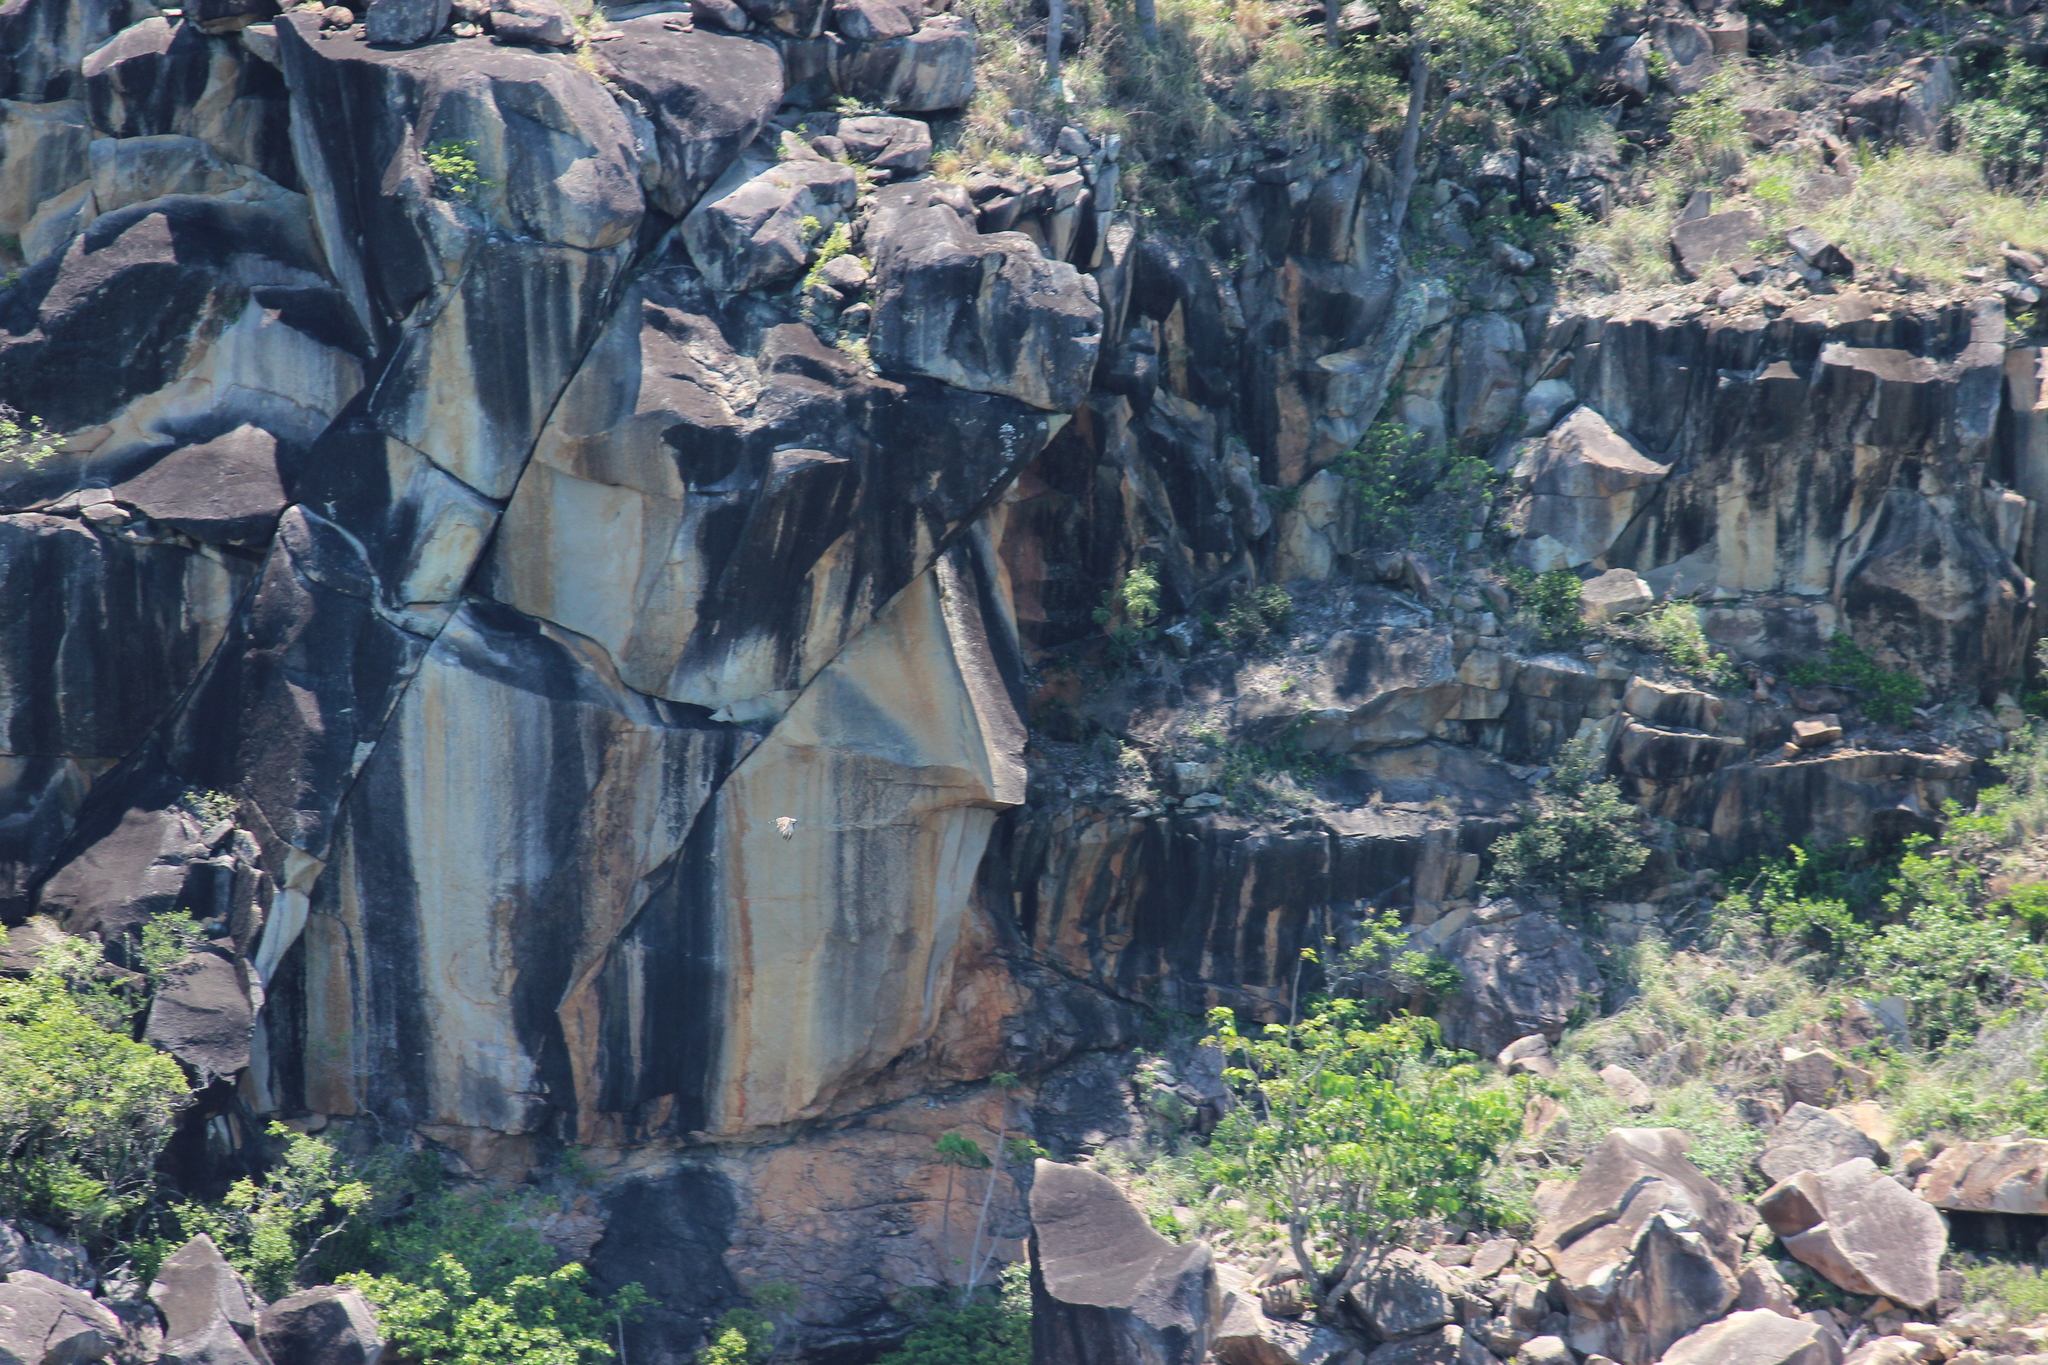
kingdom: Animalia
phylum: Chordata
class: Aves
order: Accipitriformes
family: Pandionidae
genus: Pandion
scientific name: Pandion cristatus
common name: Eastern osprey
